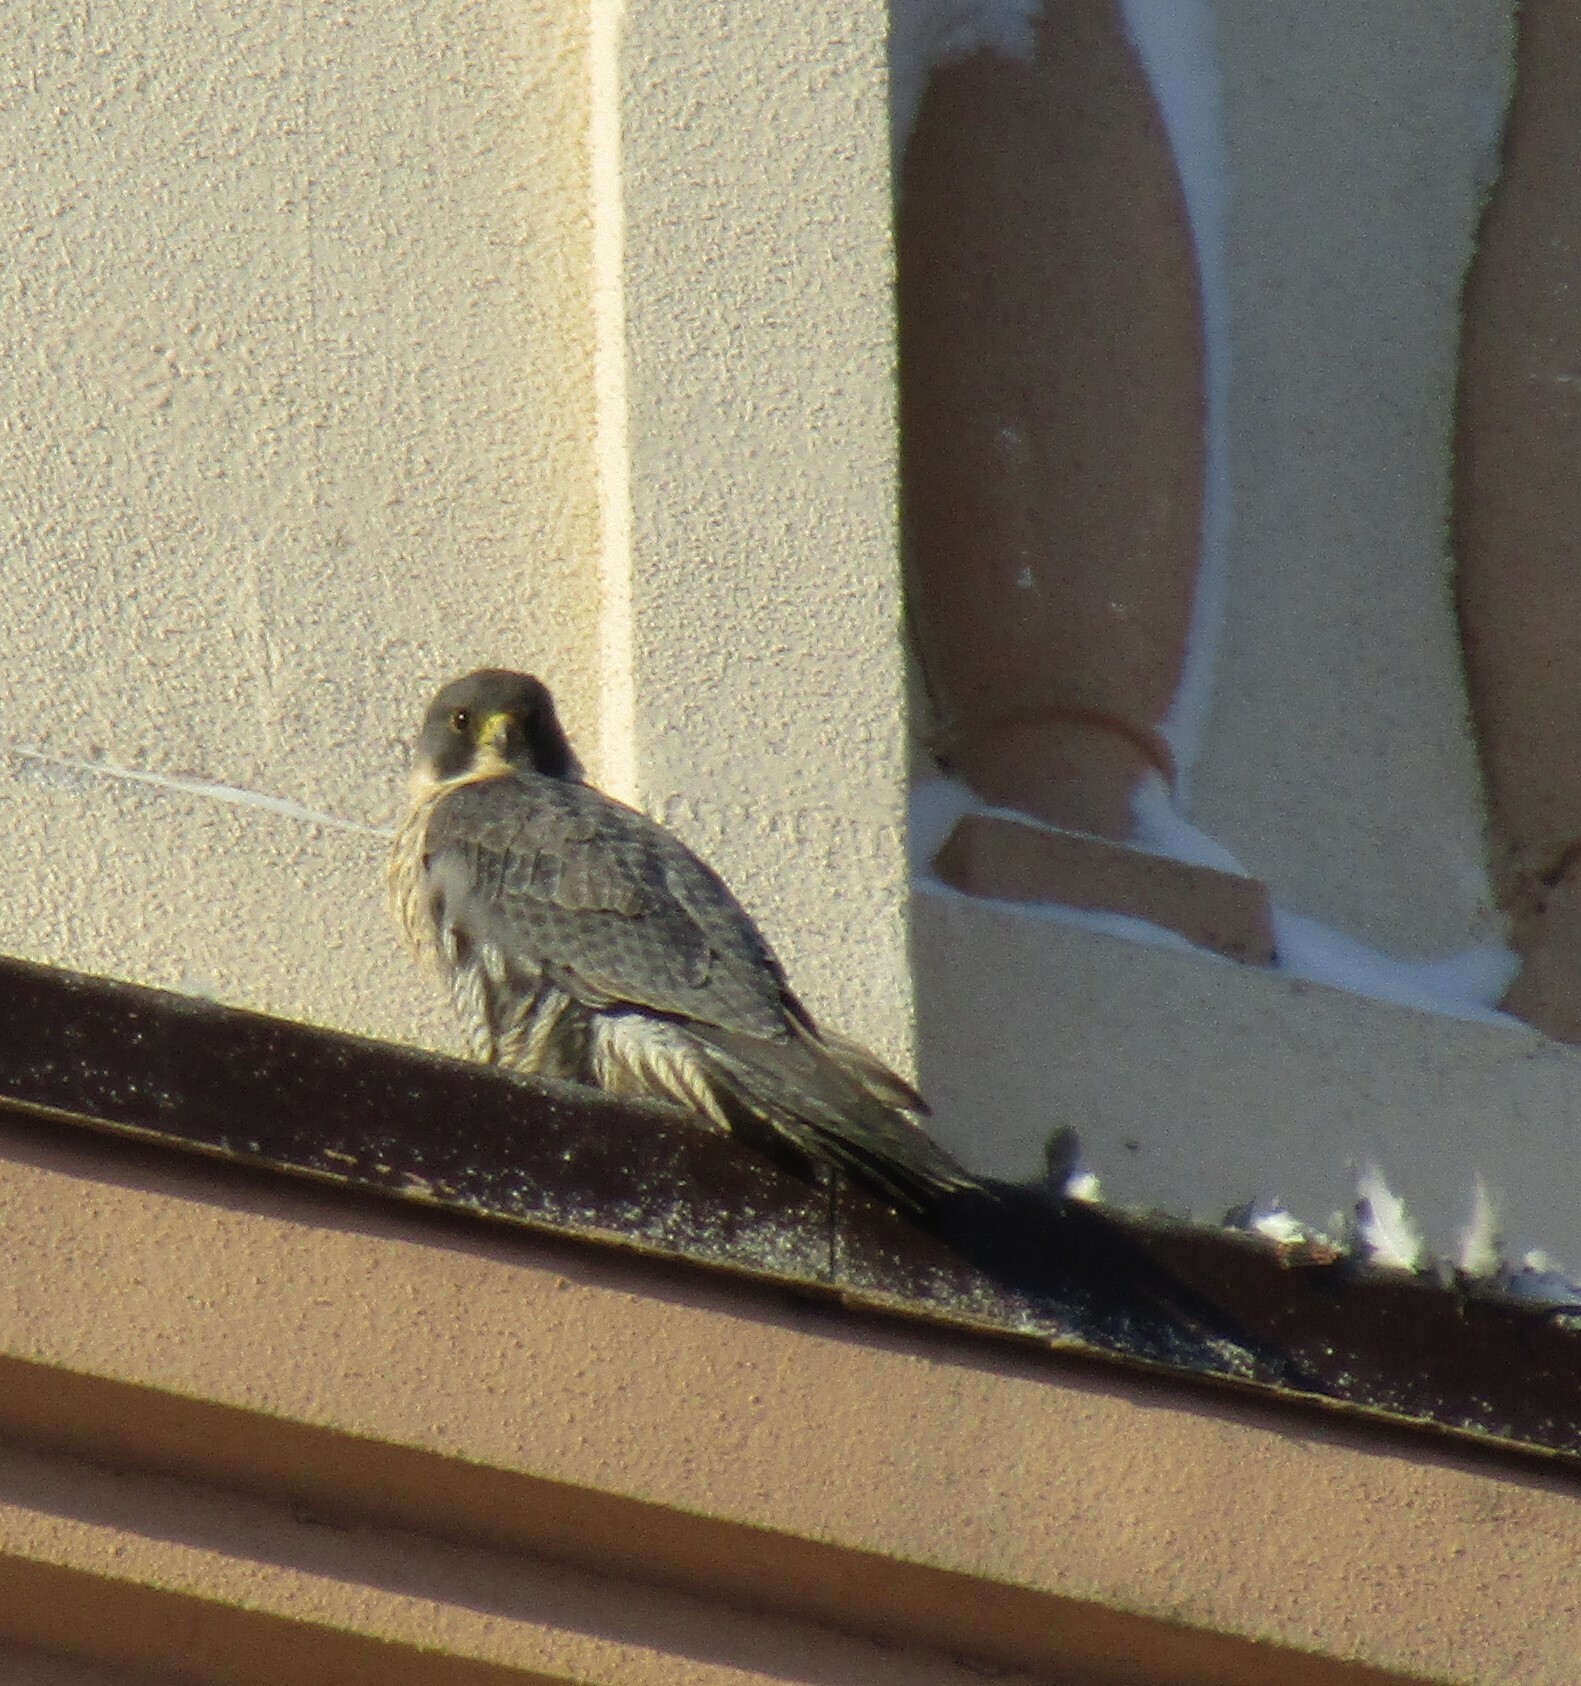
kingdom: Animalia
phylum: Chordata
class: Aves
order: Falconiformes
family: Falconidae
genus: Falco
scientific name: Falco peregrinus
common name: Peregrine falcon
